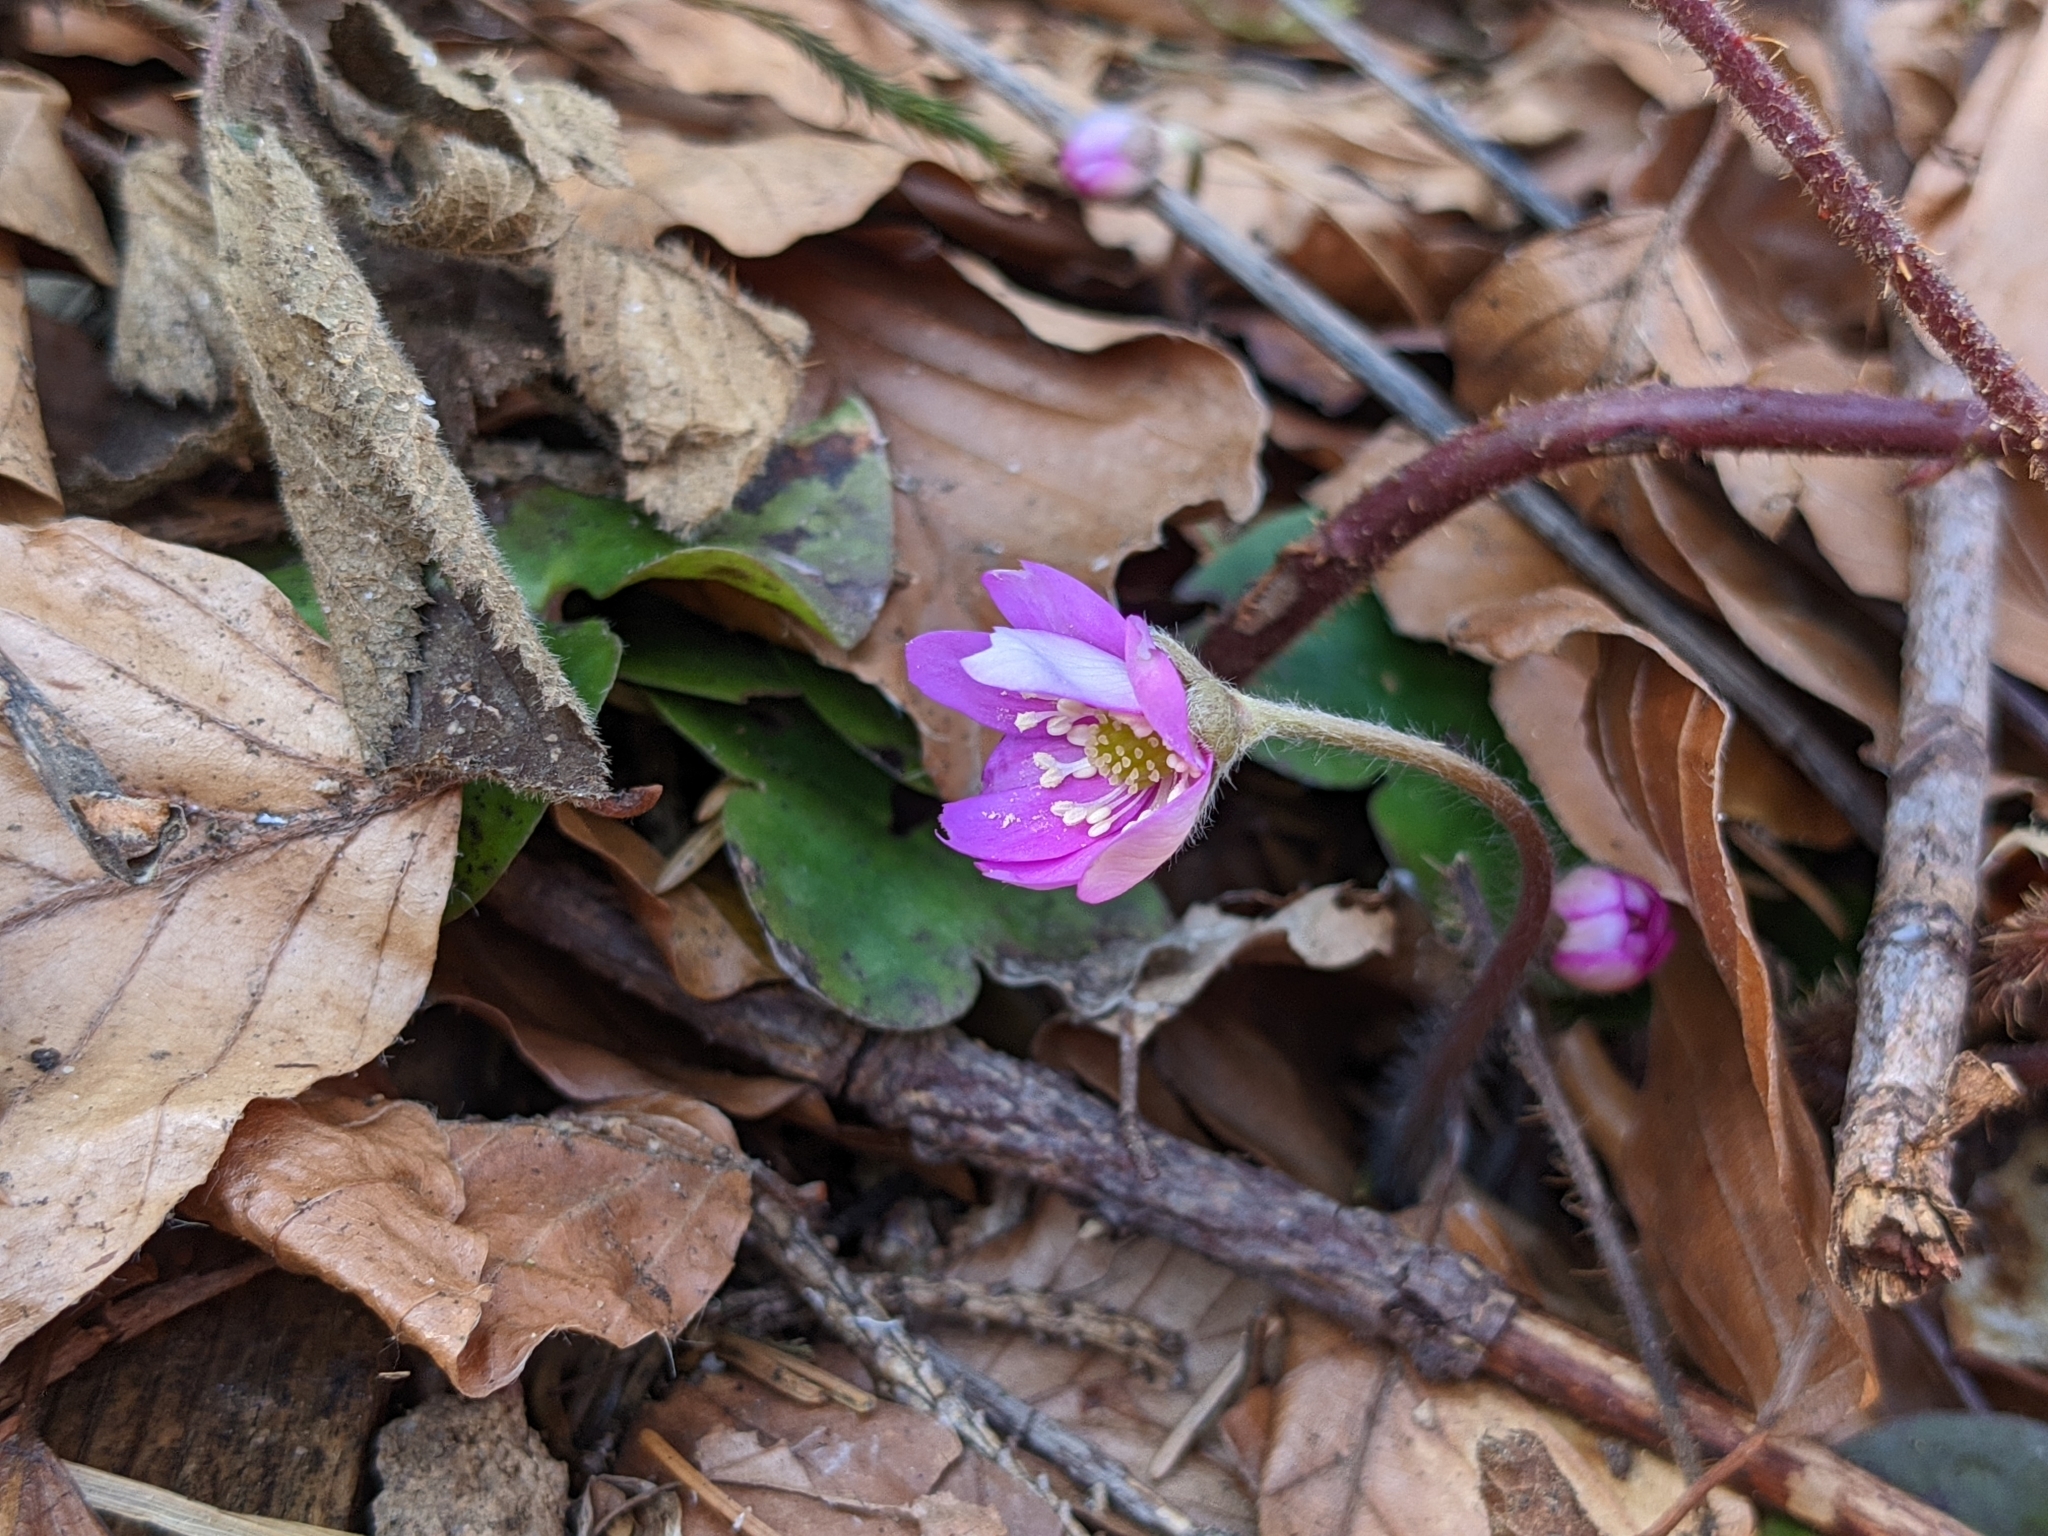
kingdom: Plantae
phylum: Tracheophyta
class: Magnoliopsida
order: Ranunculales
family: Ranunculaceae
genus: Hepatica
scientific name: Hepatica nobilis
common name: Liverleaf
